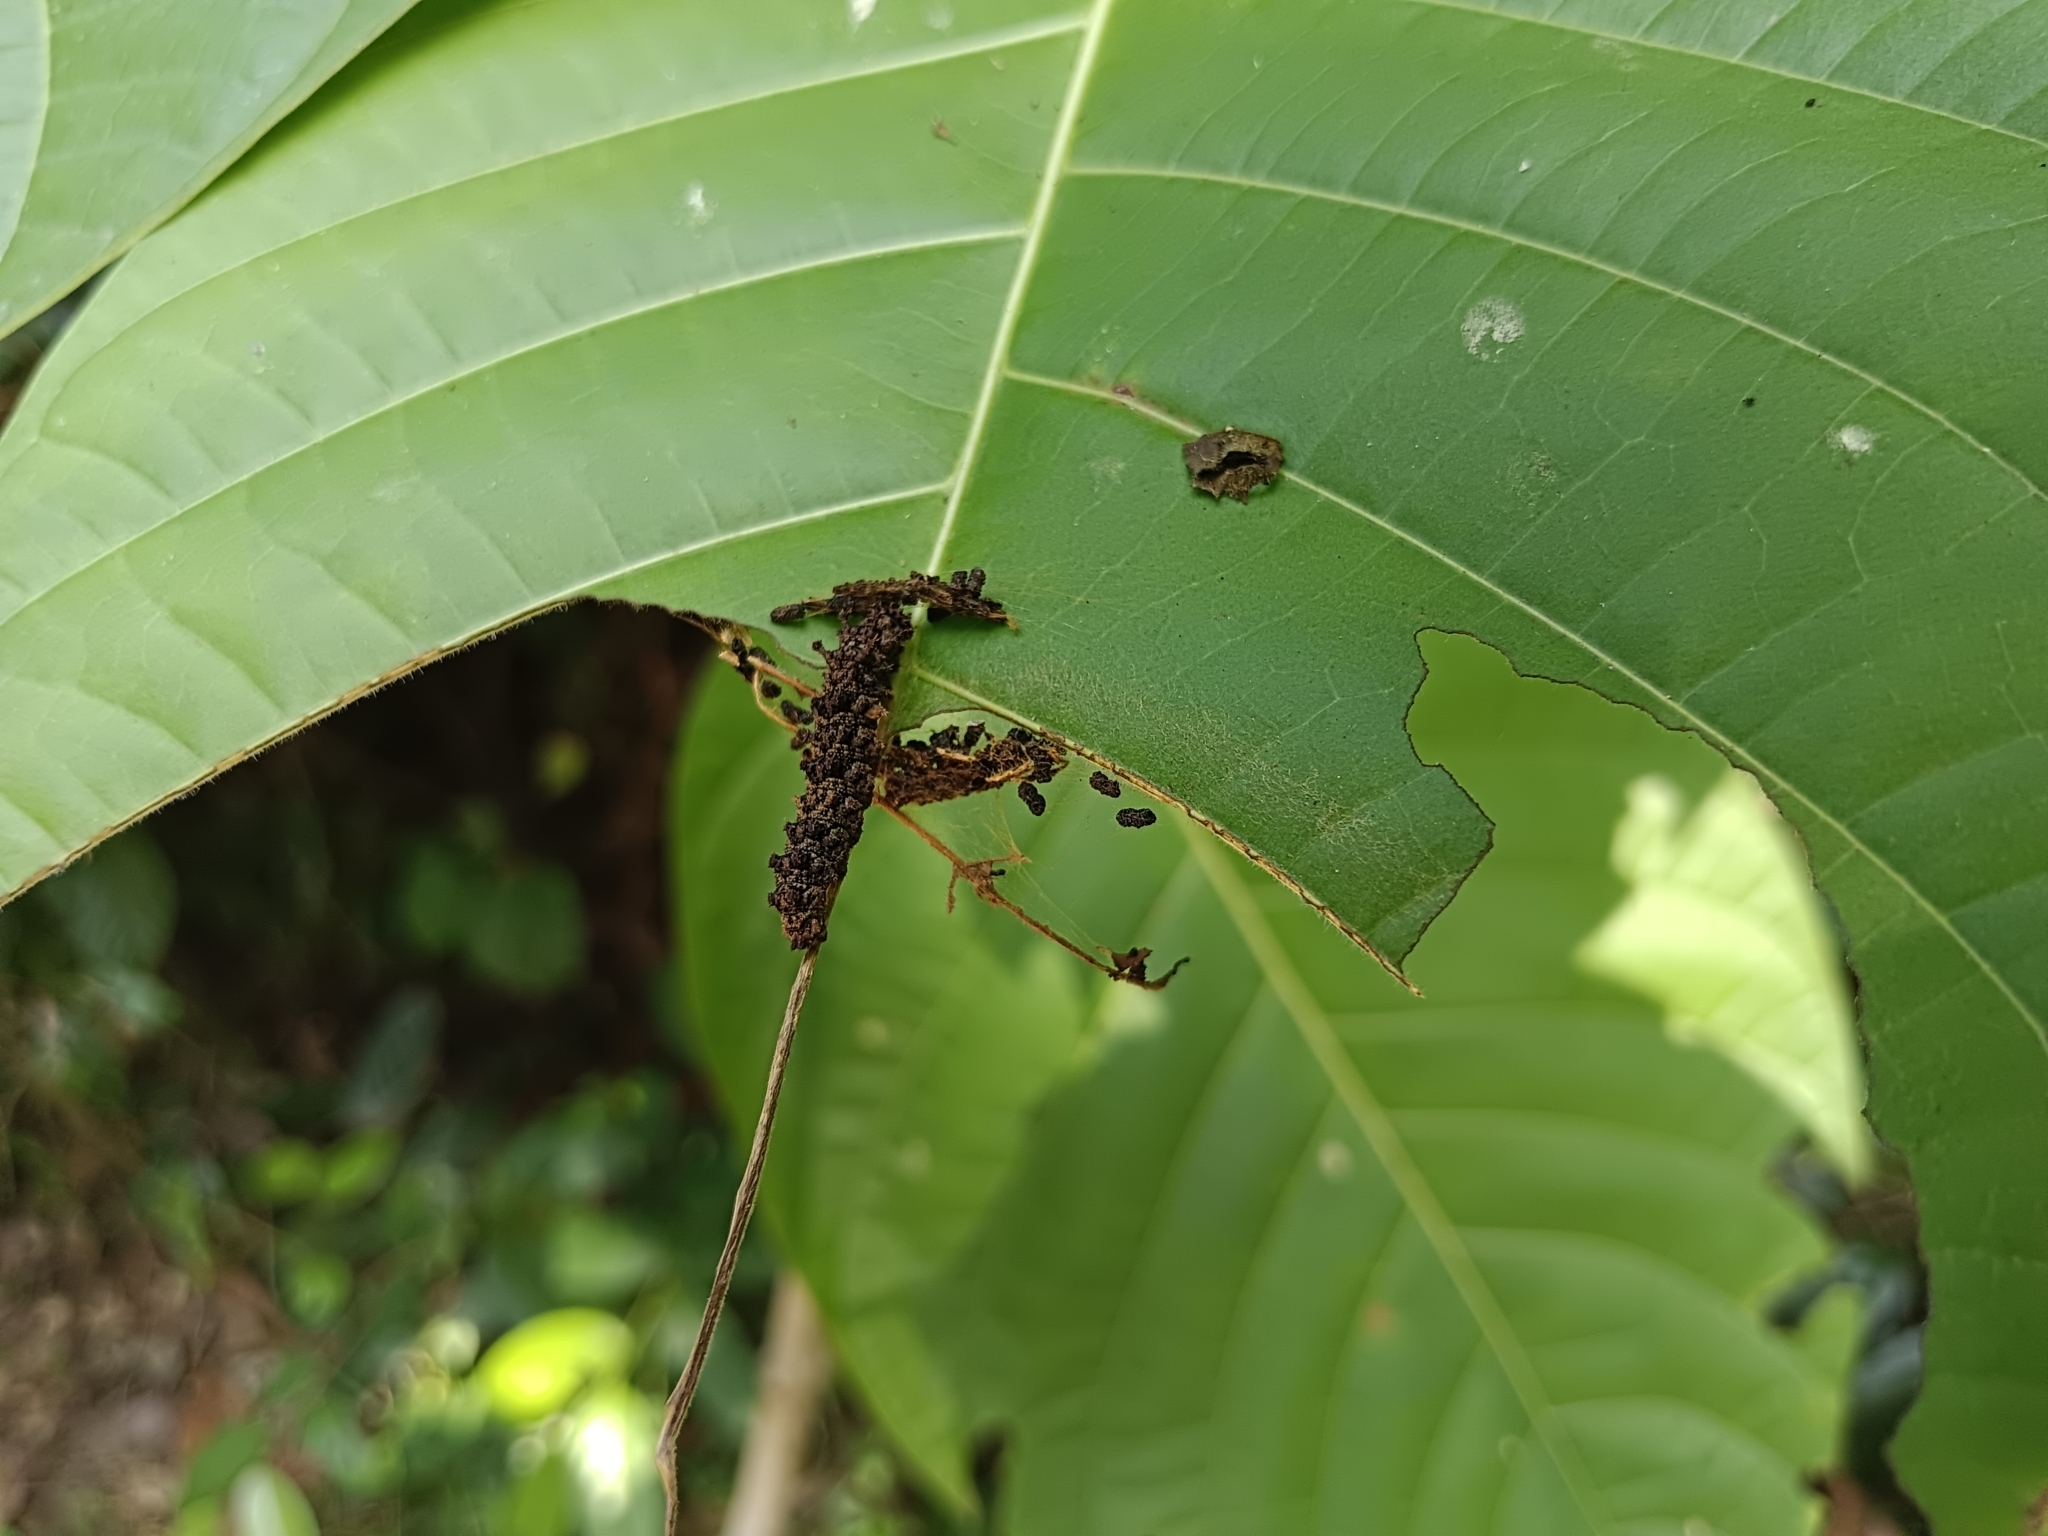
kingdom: Animalia
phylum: Arthropoda
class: Insecta
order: Lepidoptera
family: Nymphalidae
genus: Limenitis
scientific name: Limenitis Moduza procris
